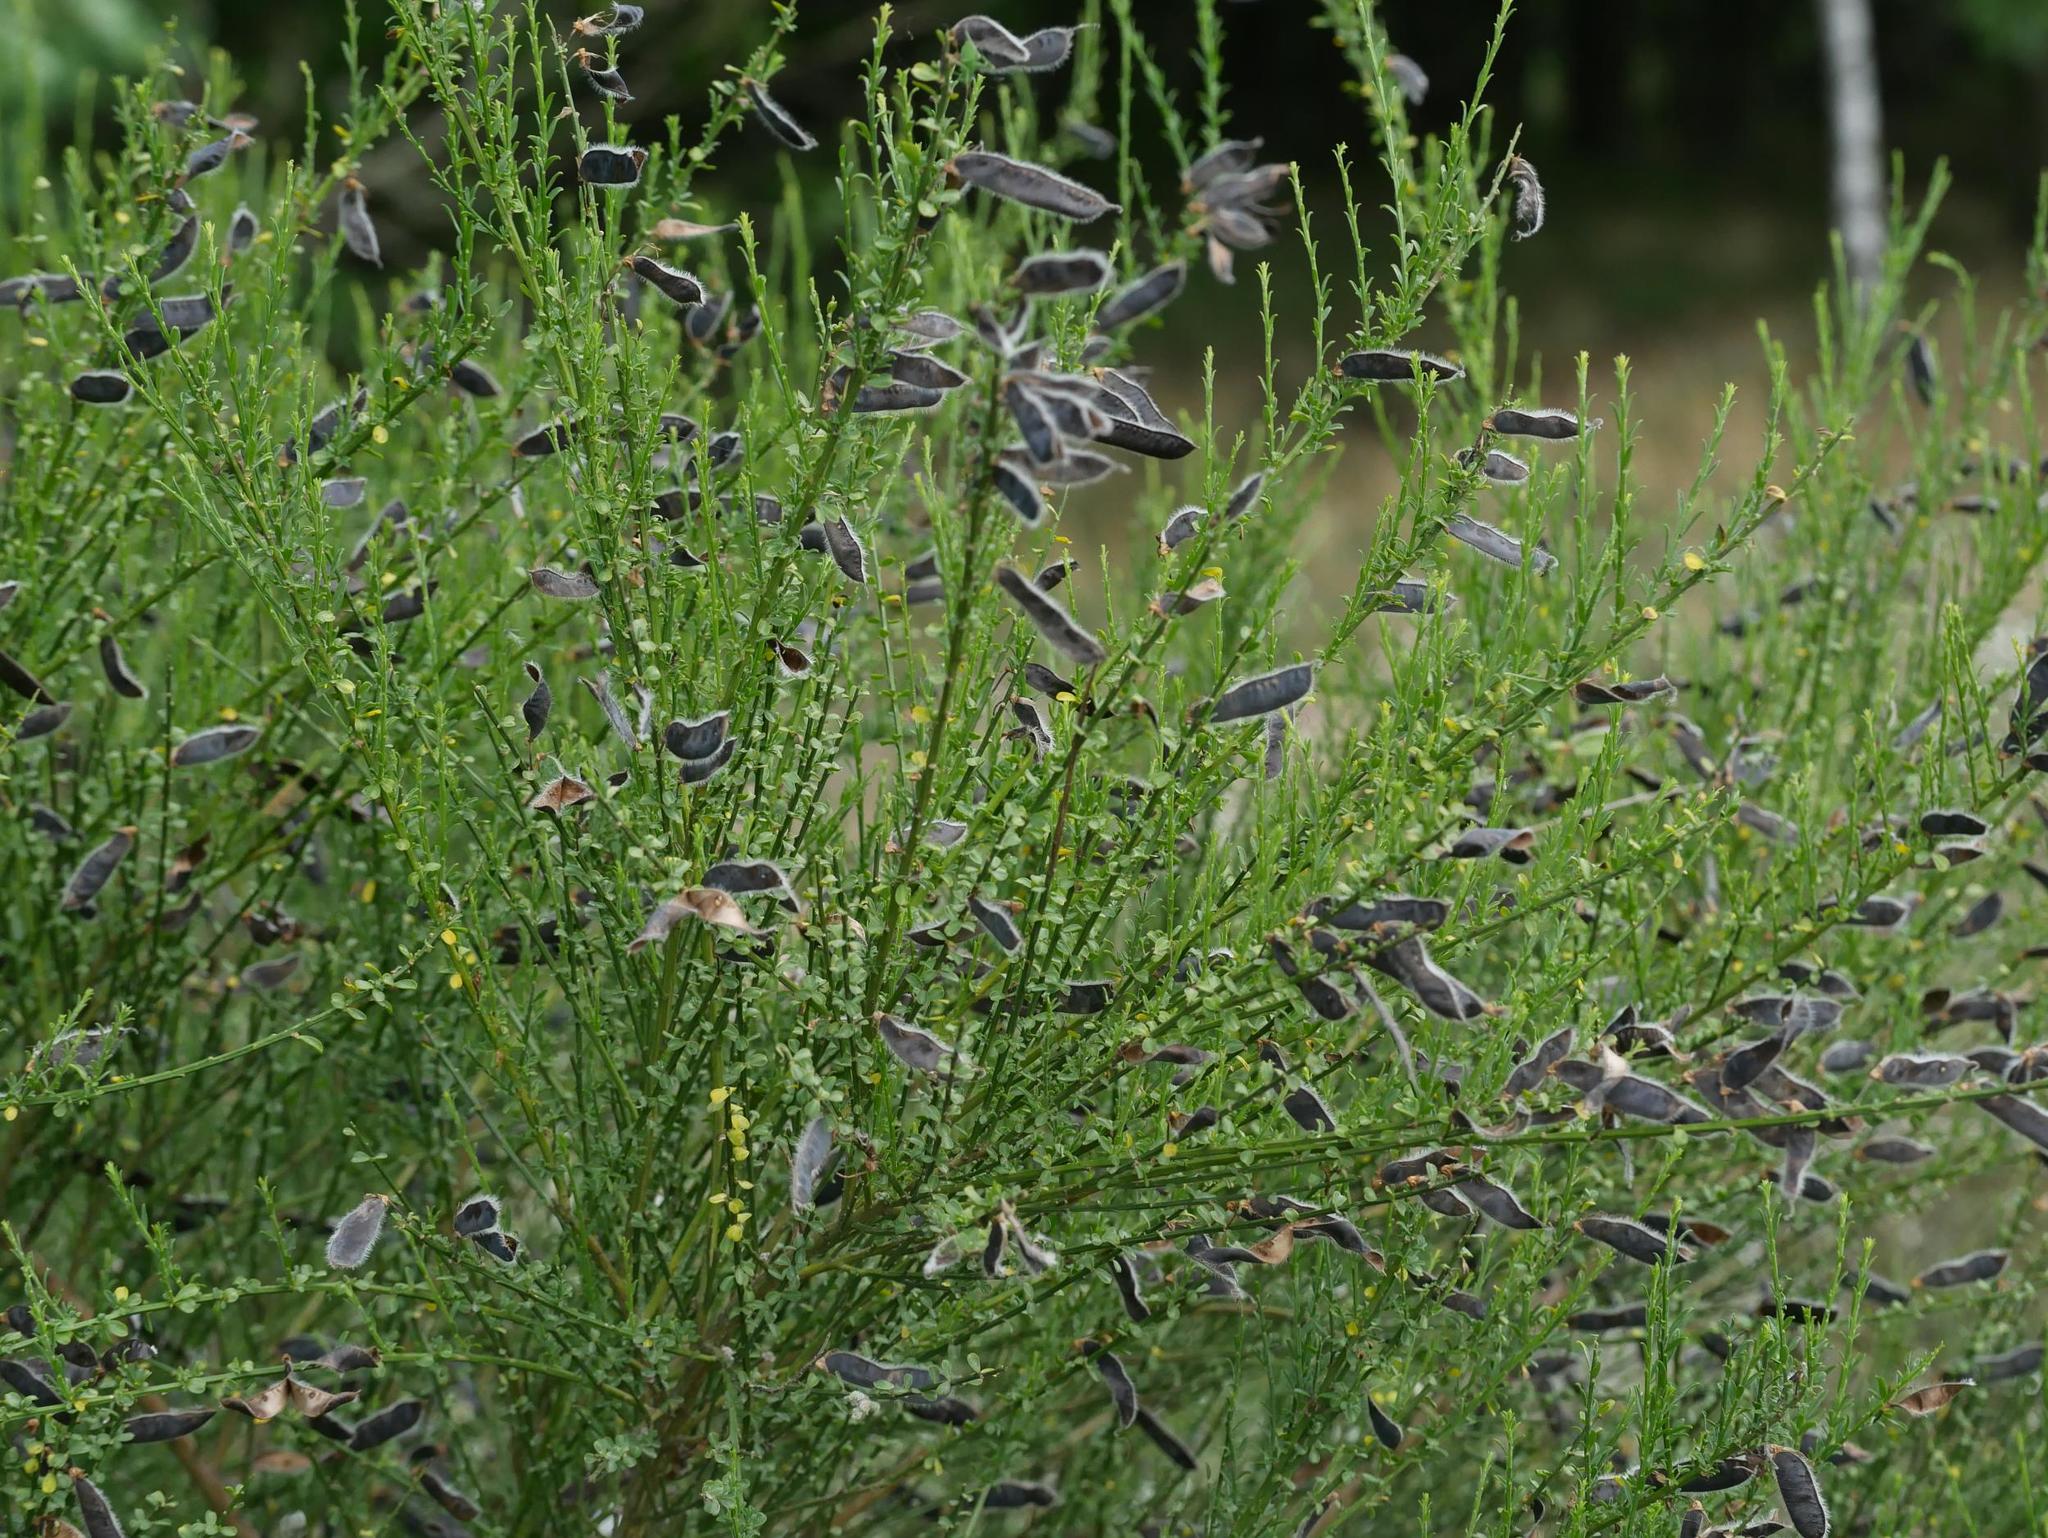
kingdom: Plantae
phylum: Tracheophyta
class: Magnoliopsida
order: Fabales
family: Fabaceae
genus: Cytisus
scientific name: Cytisus scoparius
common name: Scotch broom
